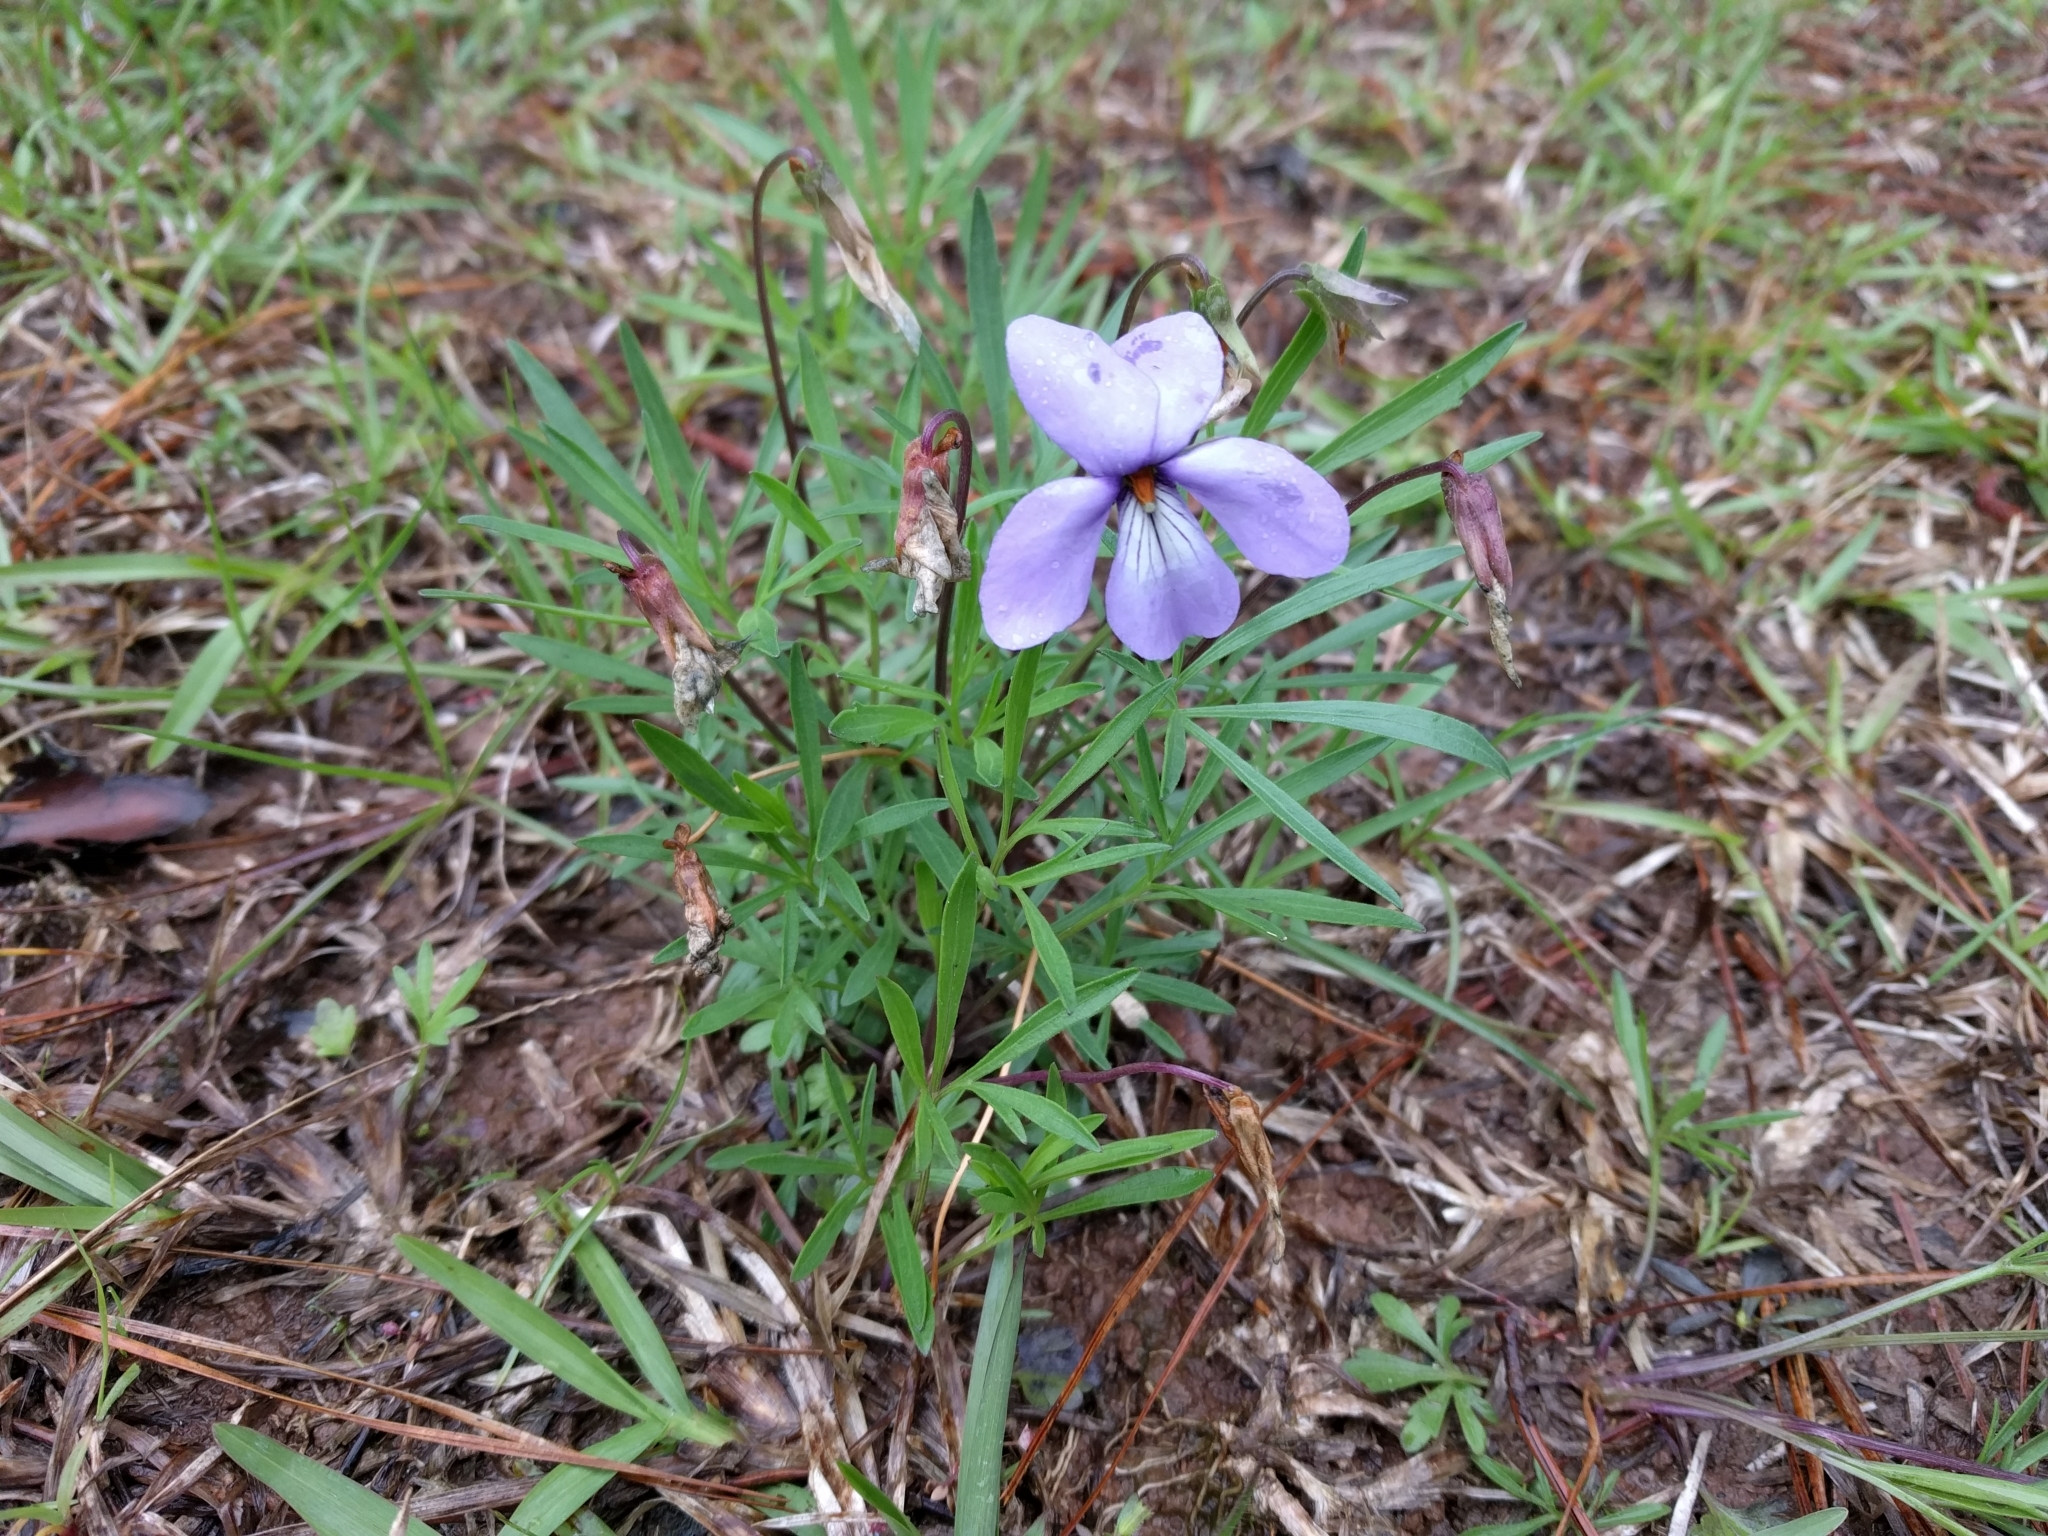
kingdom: Plantae
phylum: Tracheophyta
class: Magnoliopsida
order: Malpighiales
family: Violaceae
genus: Viola
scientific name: Viola pedata
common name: Pansy violet
